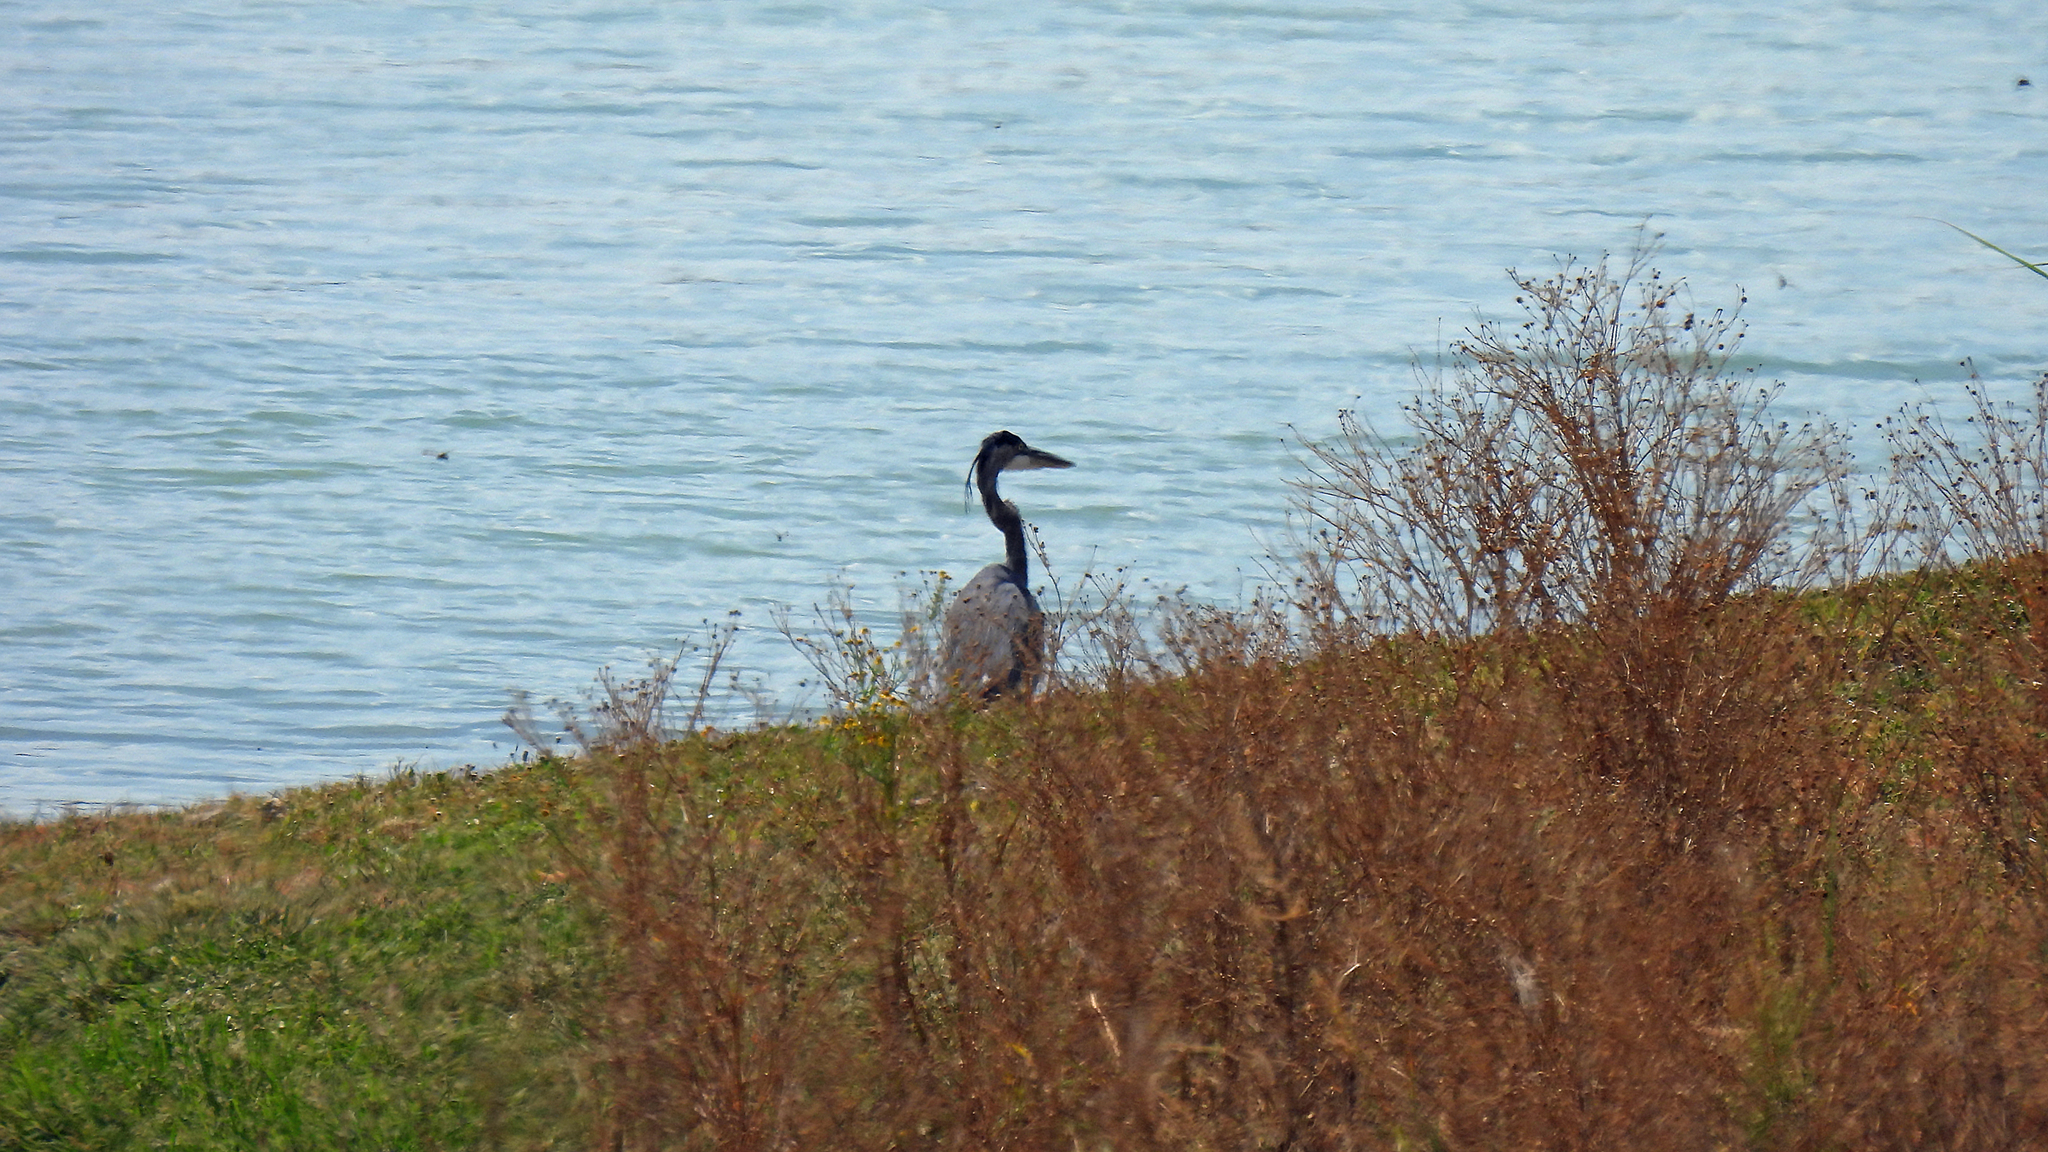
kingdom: Animalia
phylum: Chordata
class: Aves
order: Pelecaniformes
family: Ardeidae
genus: Ardea
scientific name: Ardea herodias
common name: Great blue heron
